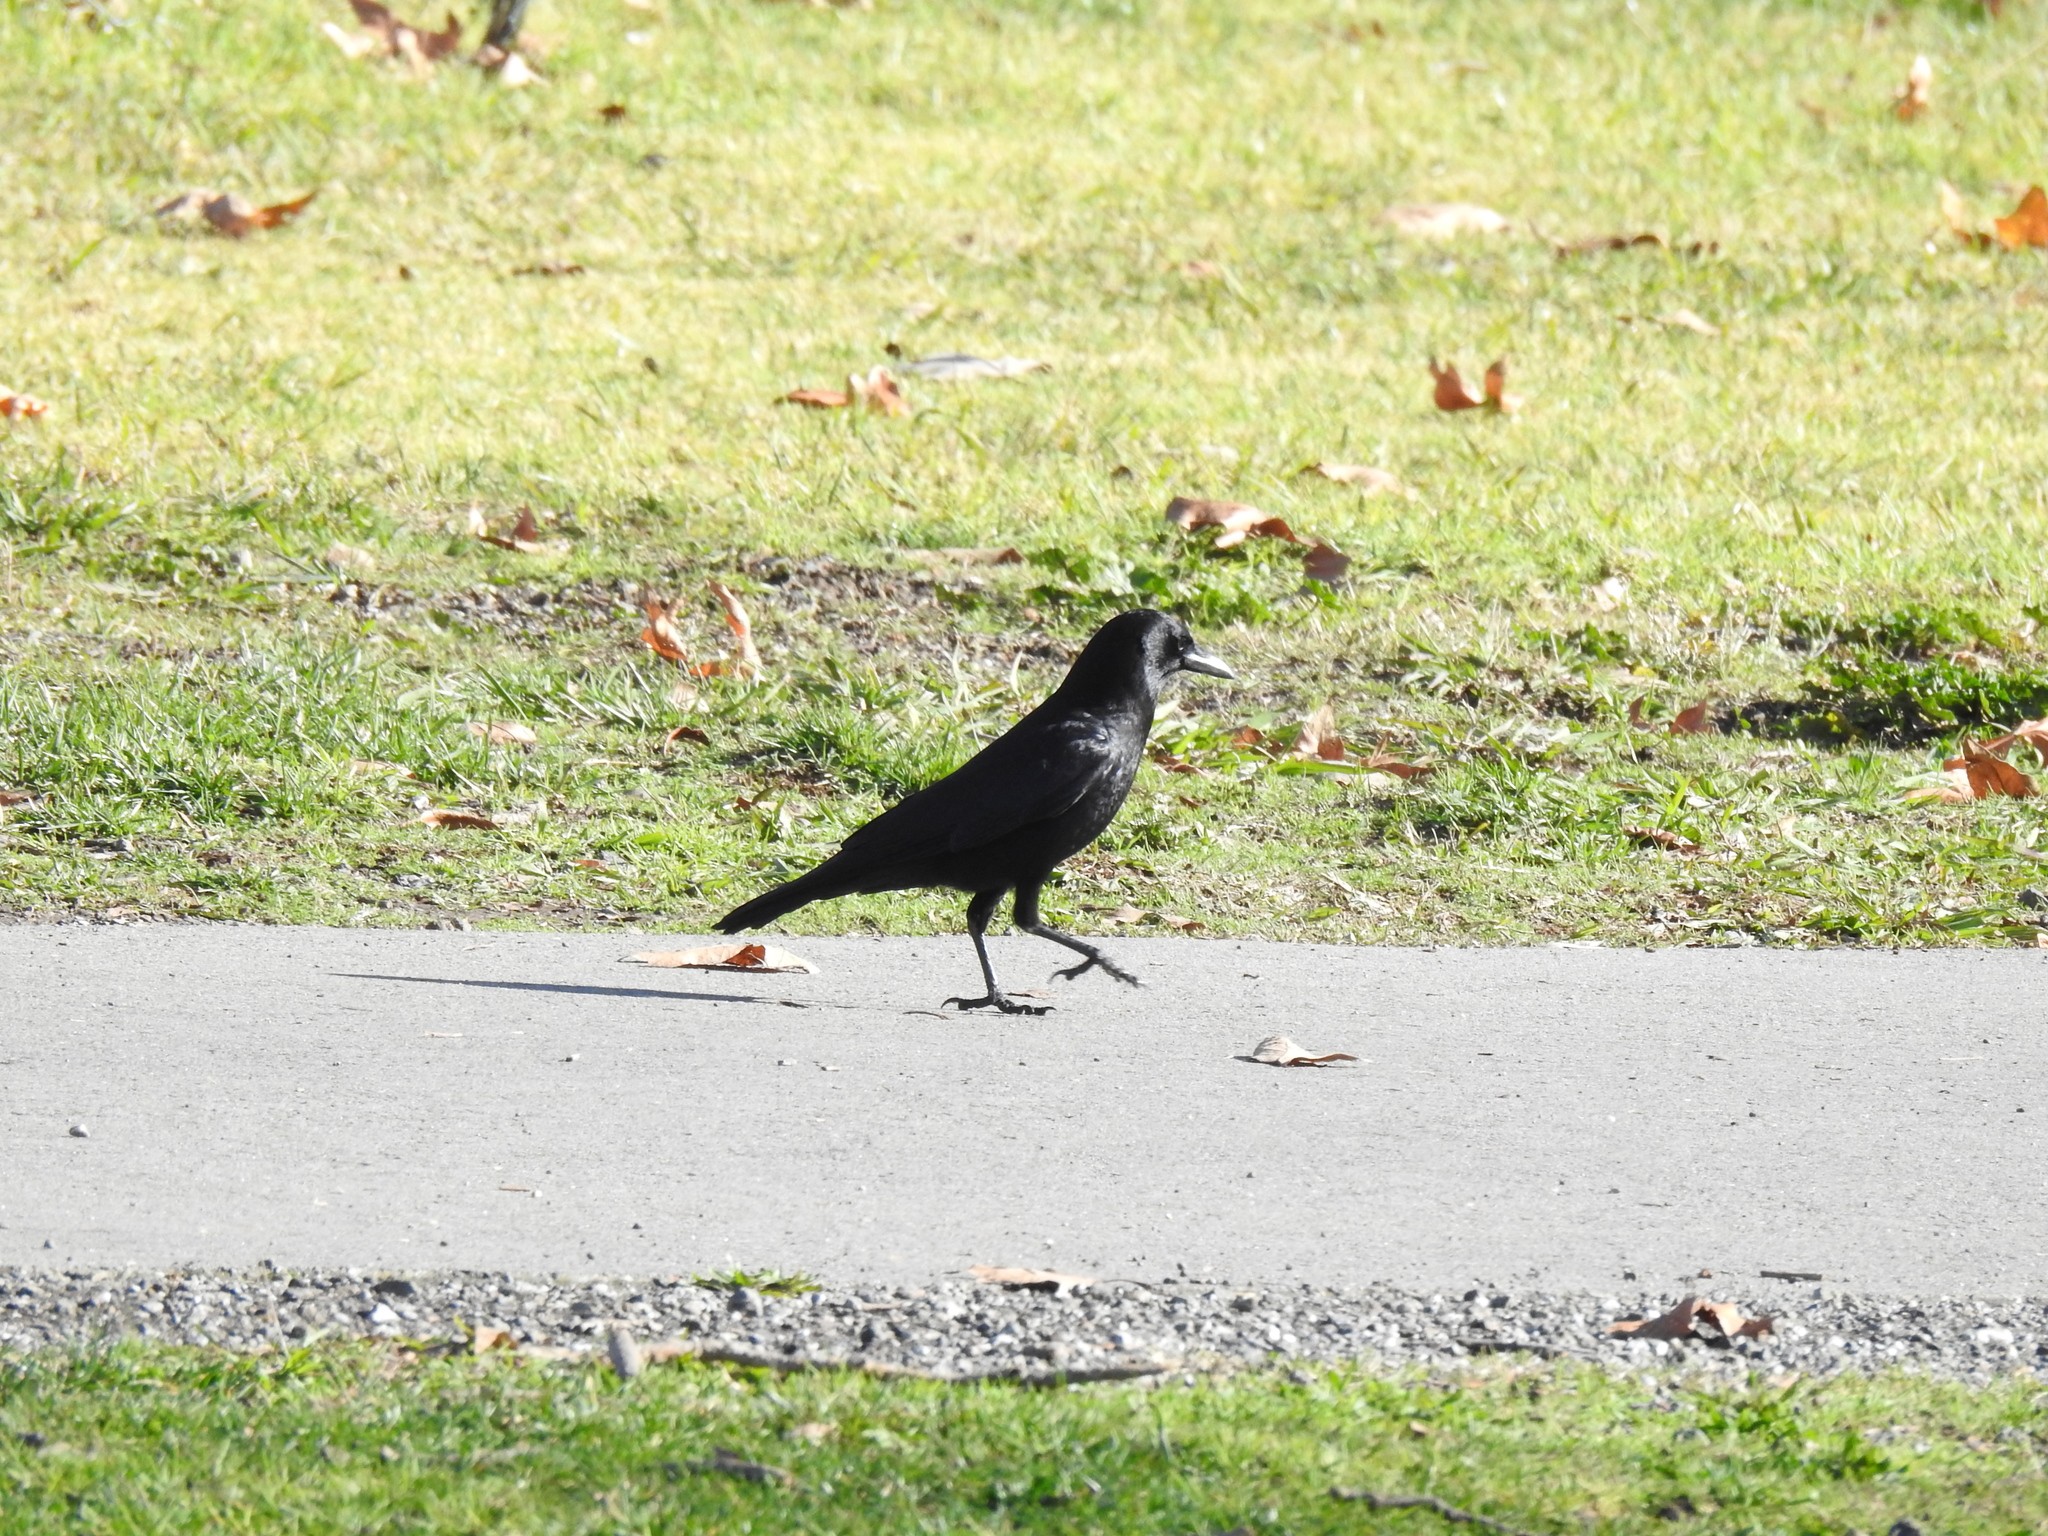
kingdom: Animalia
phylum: Chordata
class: Aves
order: Passeriformes
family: Corvidae
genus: Corvus
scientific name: Corvus brachyrhynchos
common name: American crow
